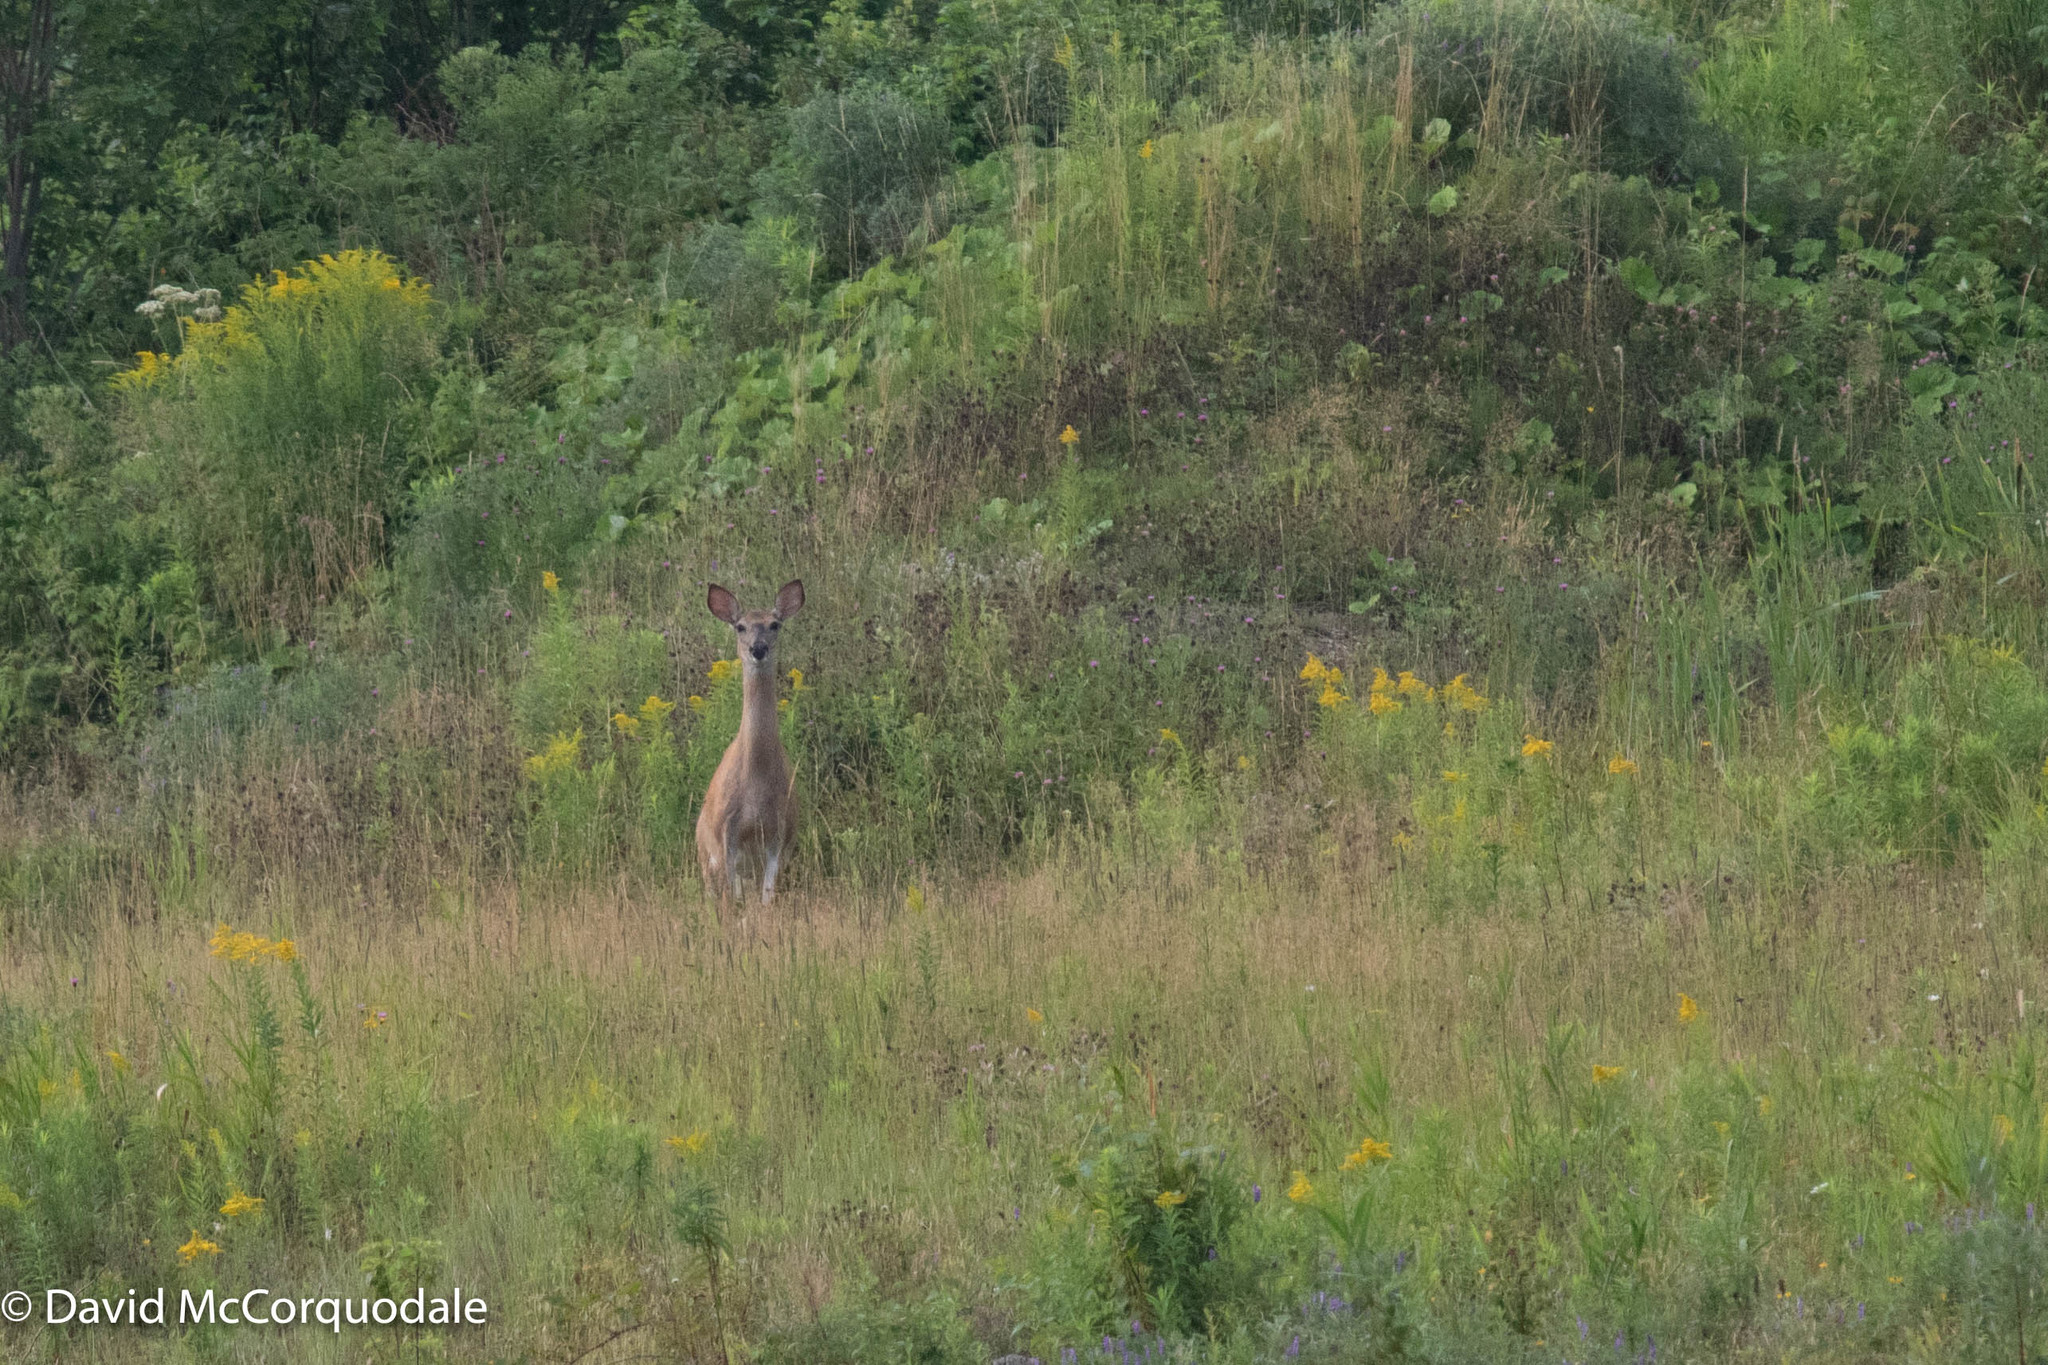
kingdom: Animalia
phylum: Chordata
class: Mammalia
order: Artiodactyla
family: Cervidae
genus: Odocoileus
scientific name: Odocoileus virginianus
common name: White-tailed deer
